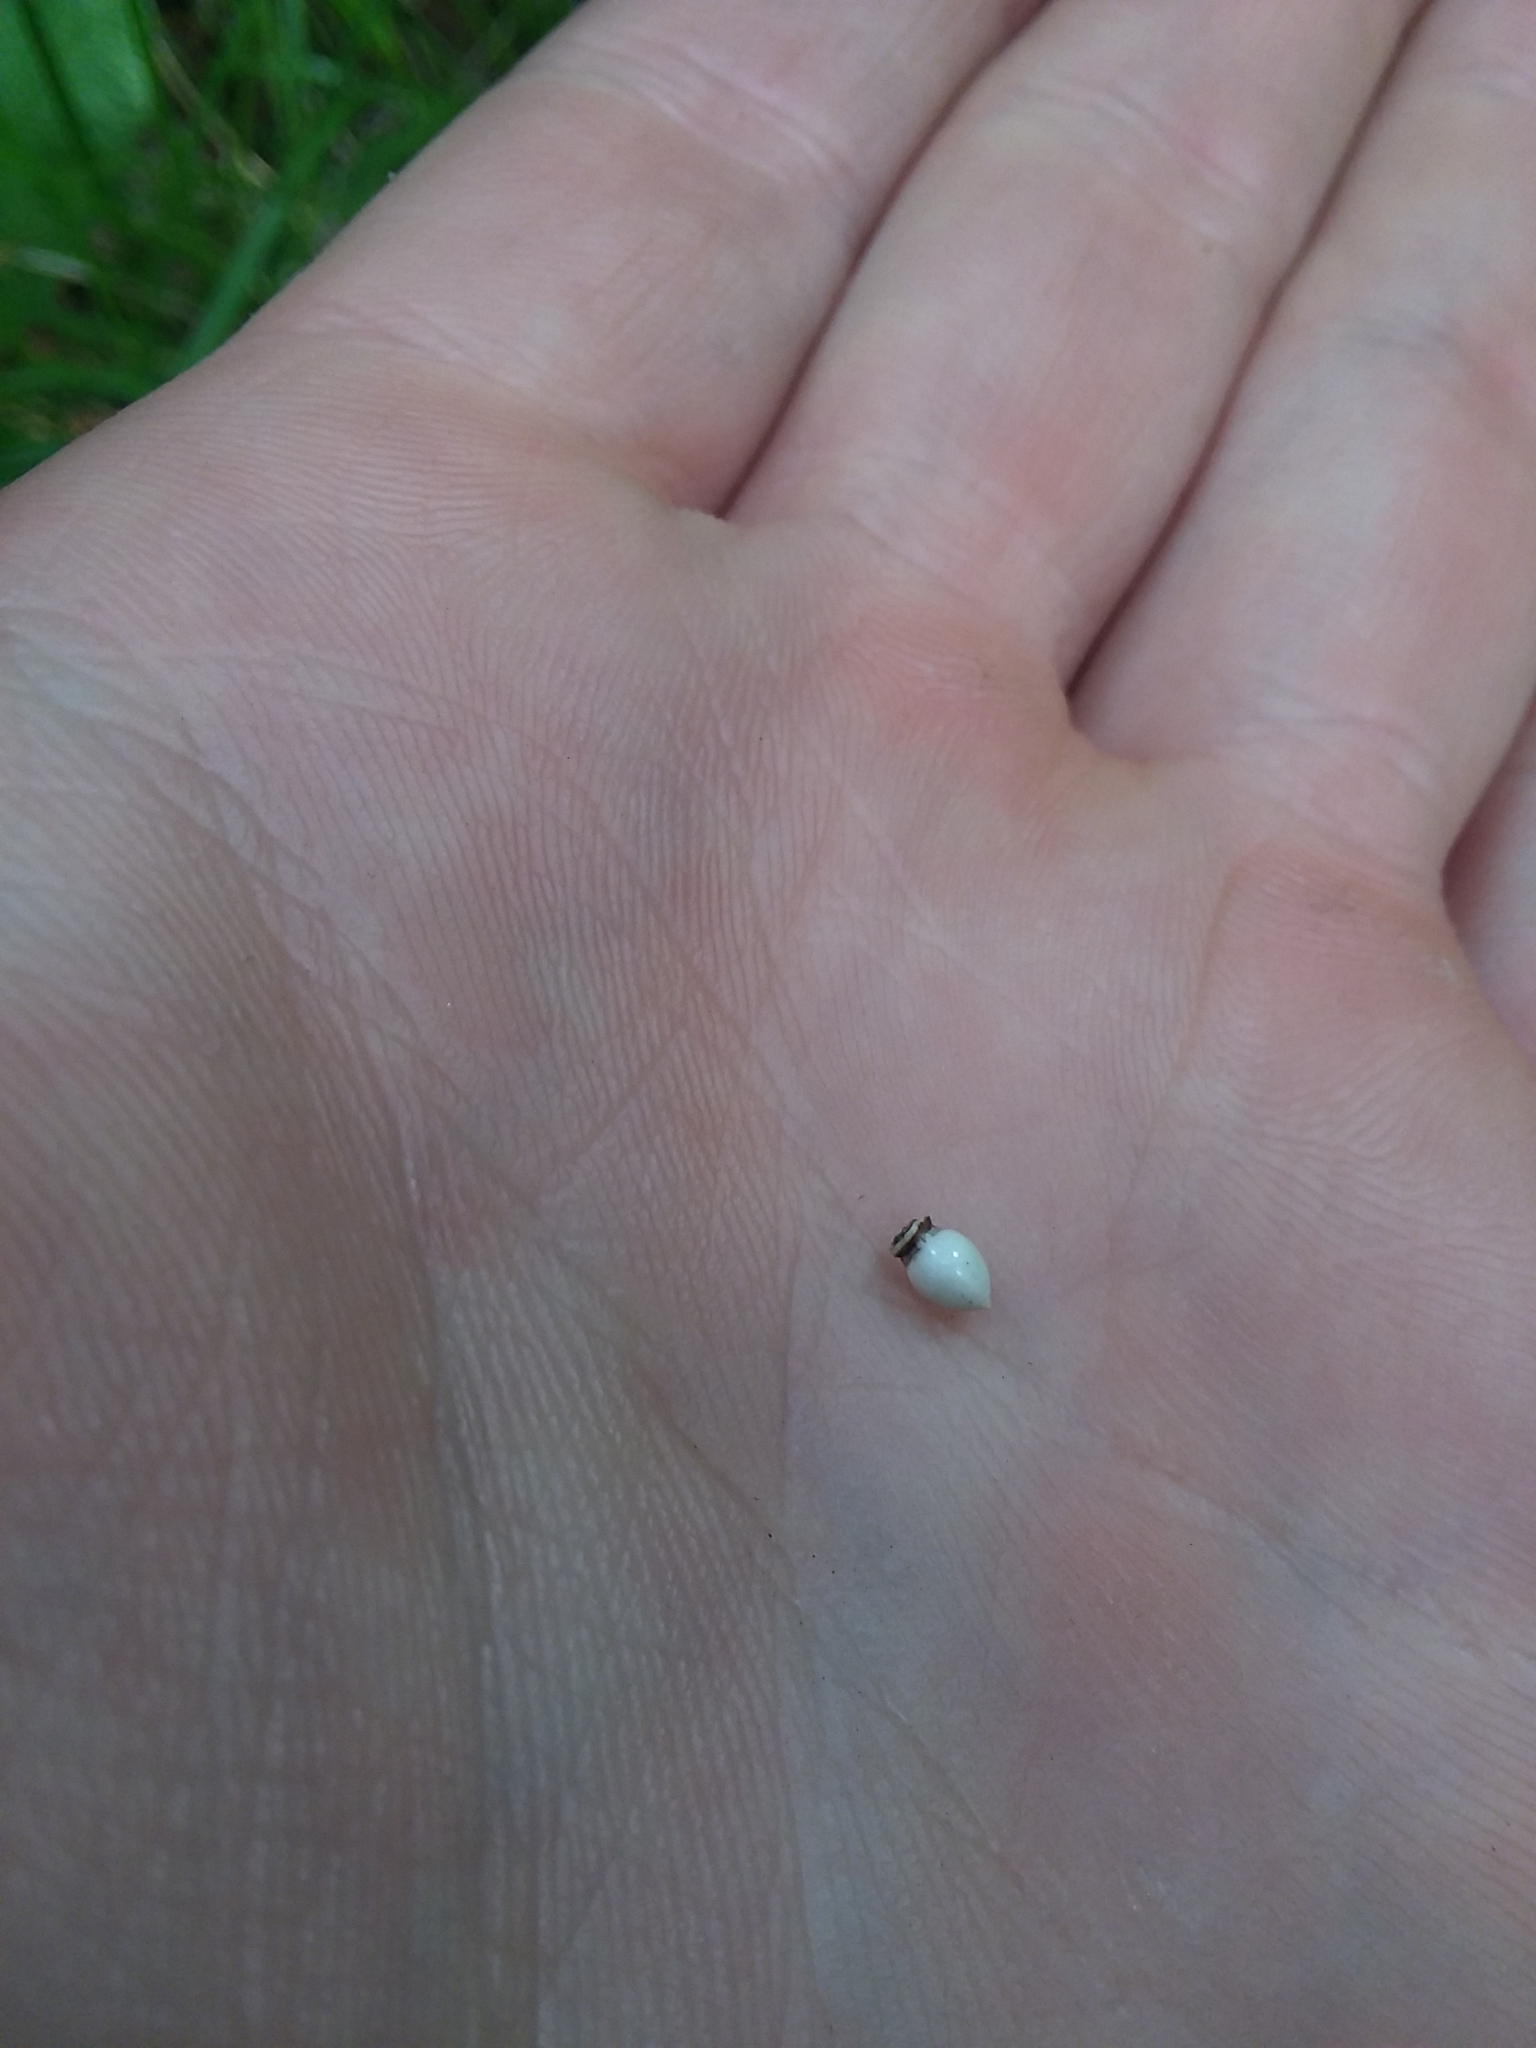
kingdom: Plantae
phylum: Tracheophyta
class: Liliopsida
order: Poales
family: Cyperaceae
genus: Scleria
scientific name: Scleria triglomerata
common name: Whip nutrush
